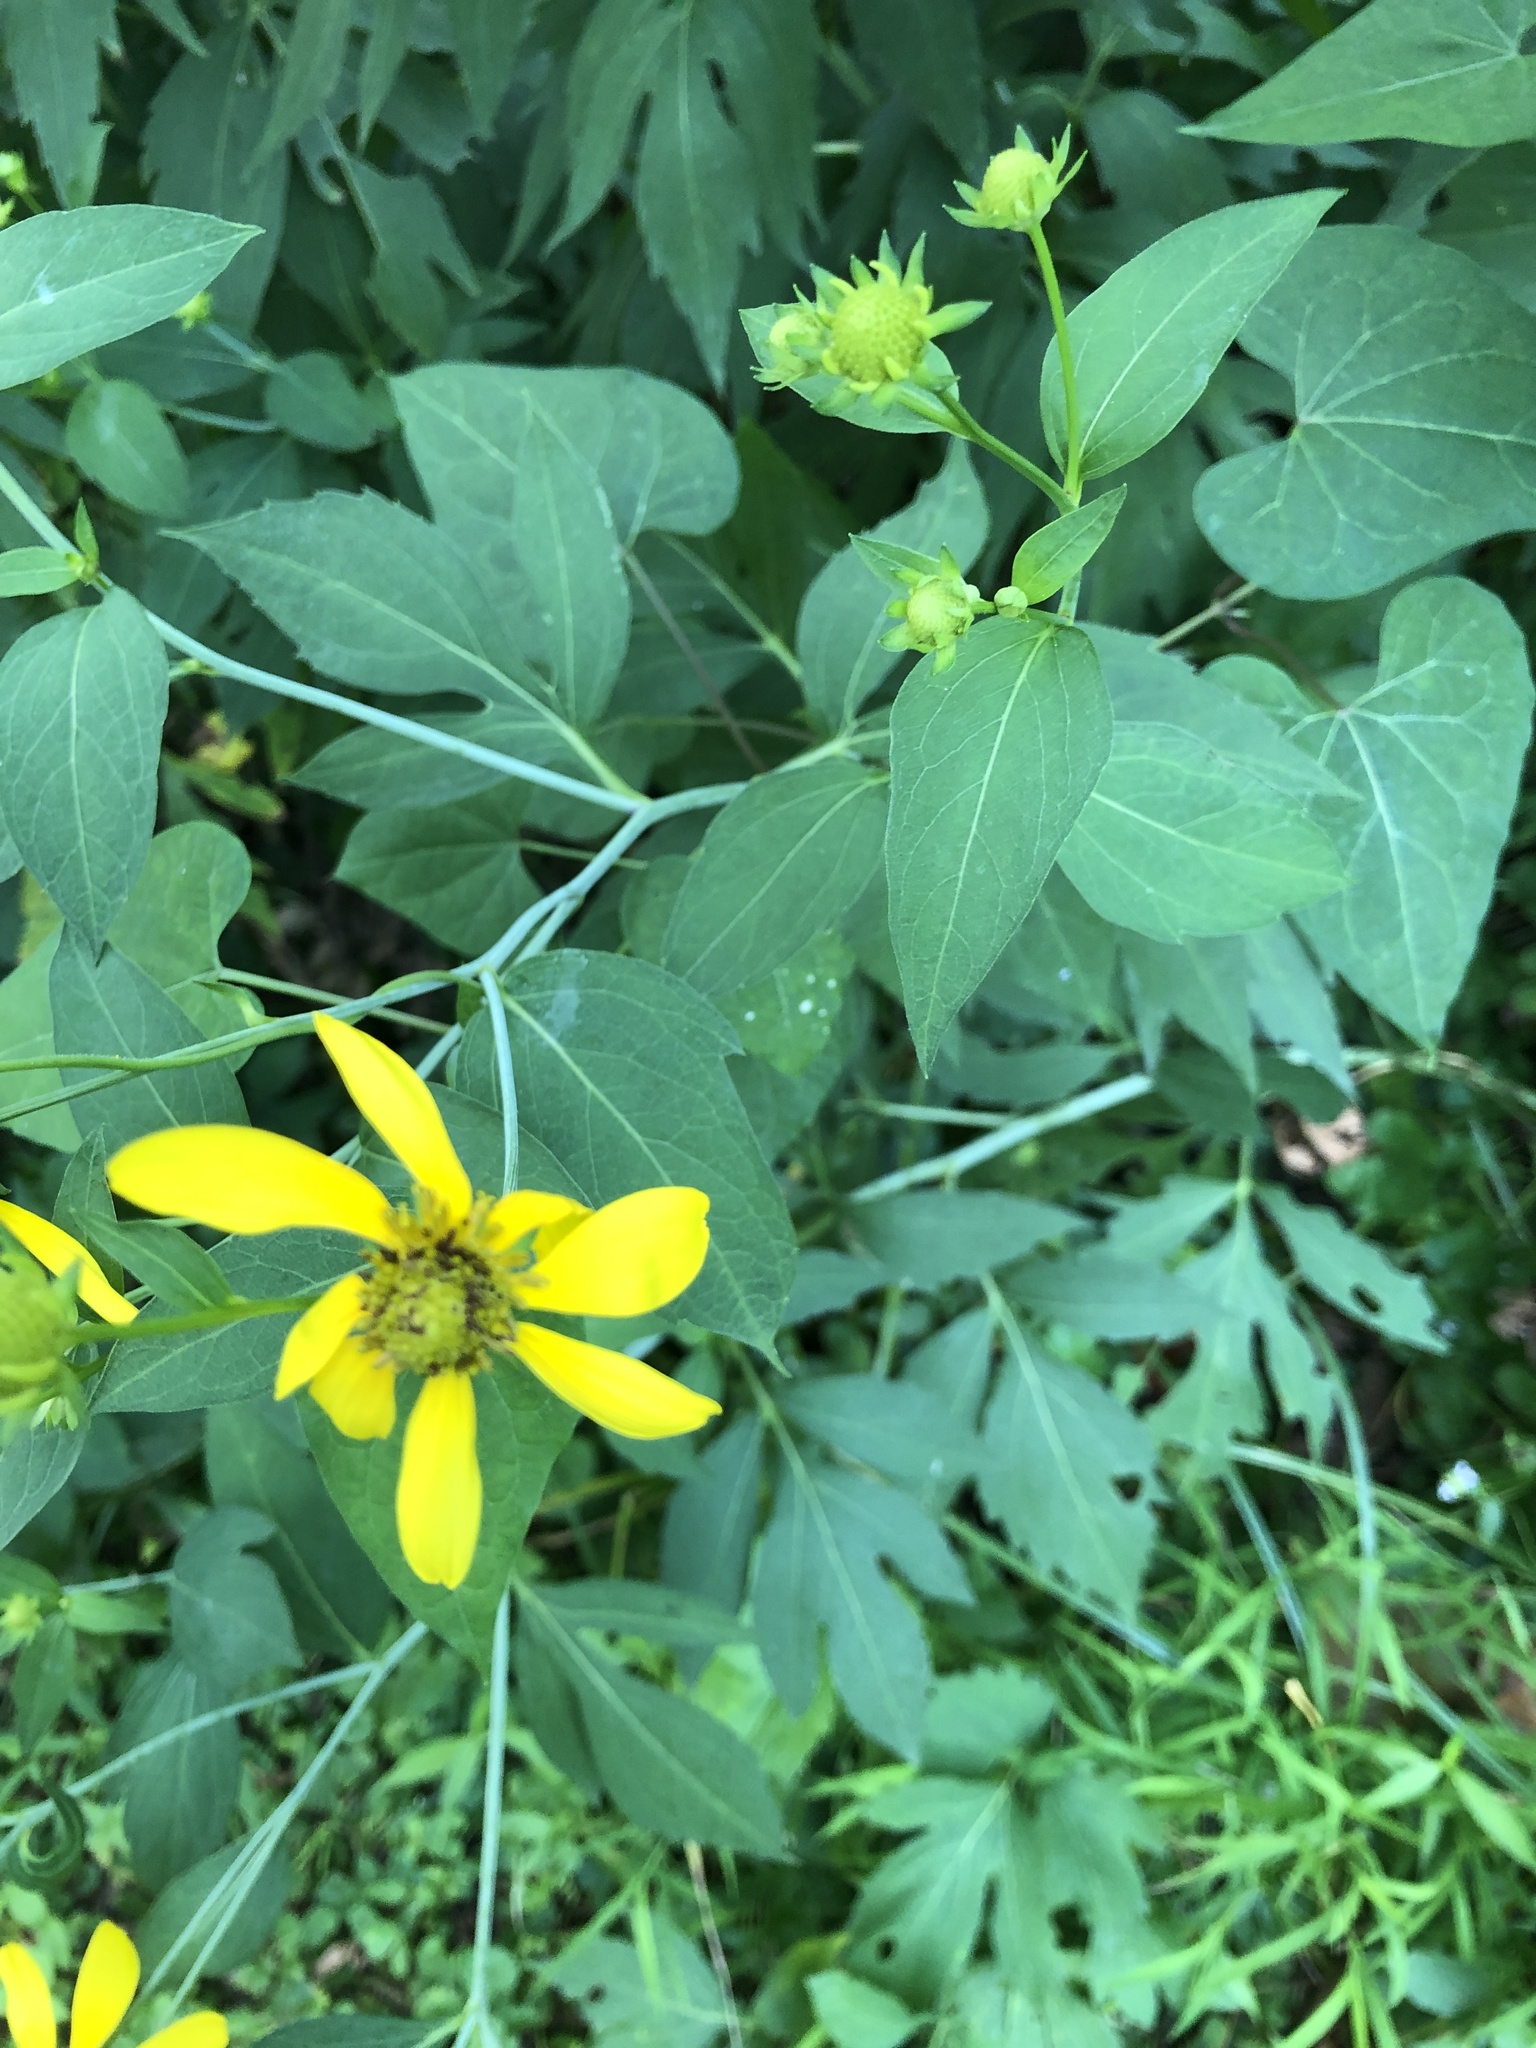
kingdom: Plantae
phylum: Tracheophyta
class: Magnoliopsida
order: Asterales
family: Asteraceae
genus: Rudbeckia
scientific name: Rudbeckia laciniata
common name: Coneflower
